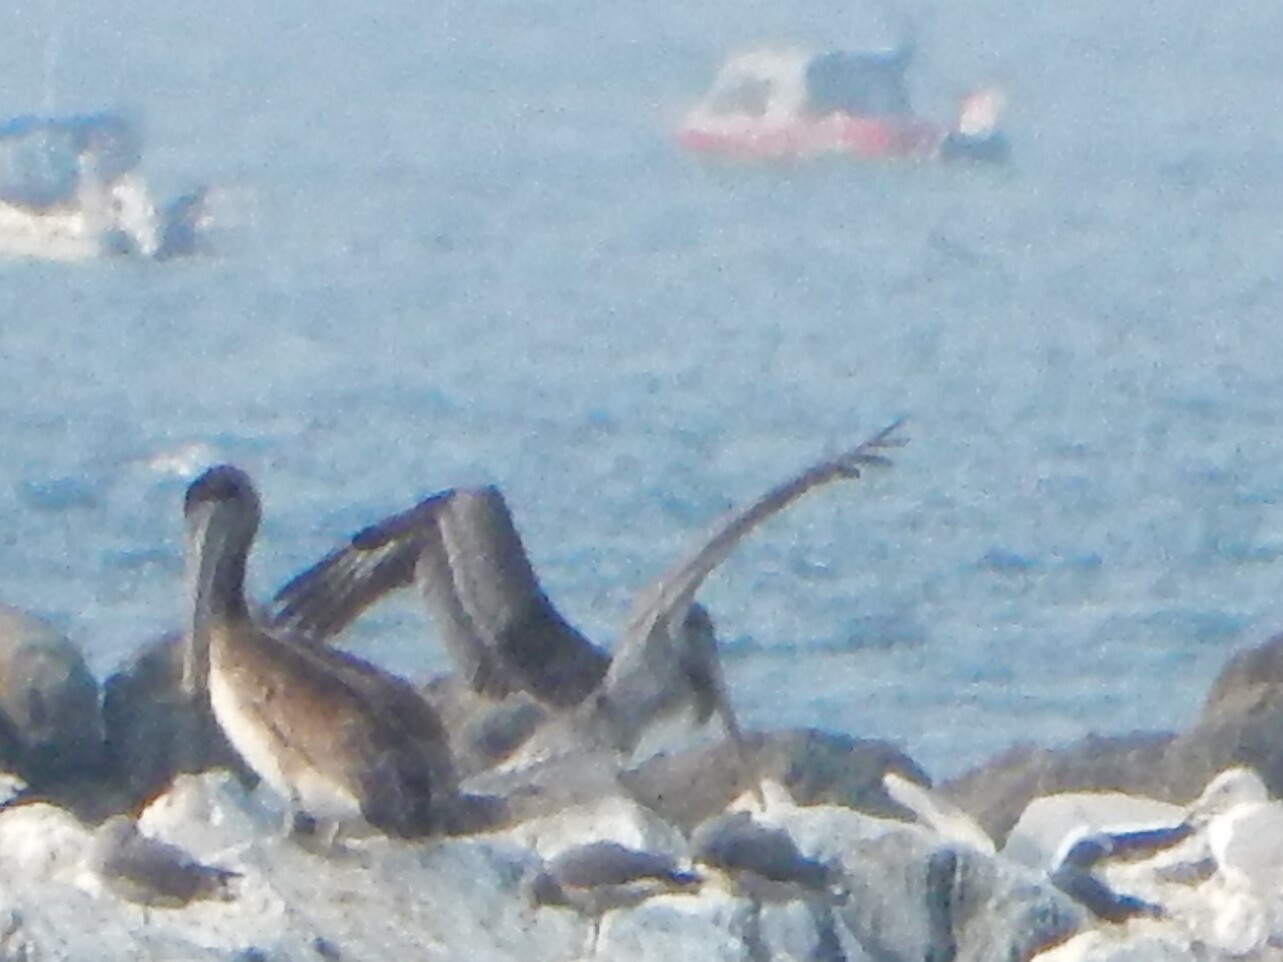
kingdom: Animalia
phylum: Chordata
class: Aves
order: Pelecaniformes
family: Pelecanidae
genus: Pelecanus
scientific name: Pelecanus occidentalis
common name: Brown pelican
